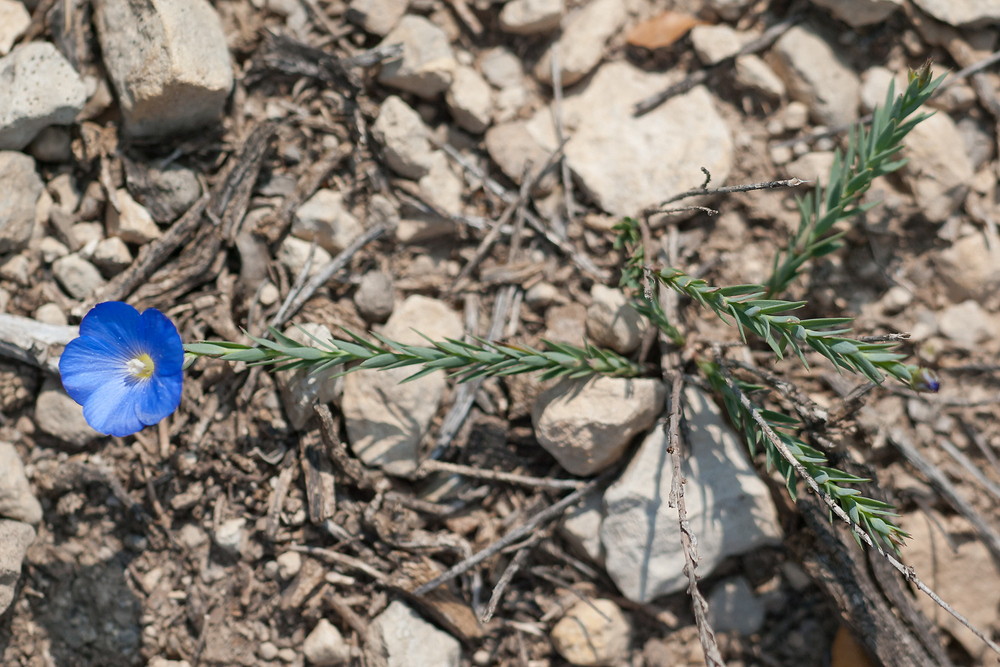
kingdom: Plantae
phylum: Tracheophyta
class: Magnoliopsida
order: Malpighiales
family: Linaceae
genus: Linum
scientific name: Linum narbonense
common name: Flax
